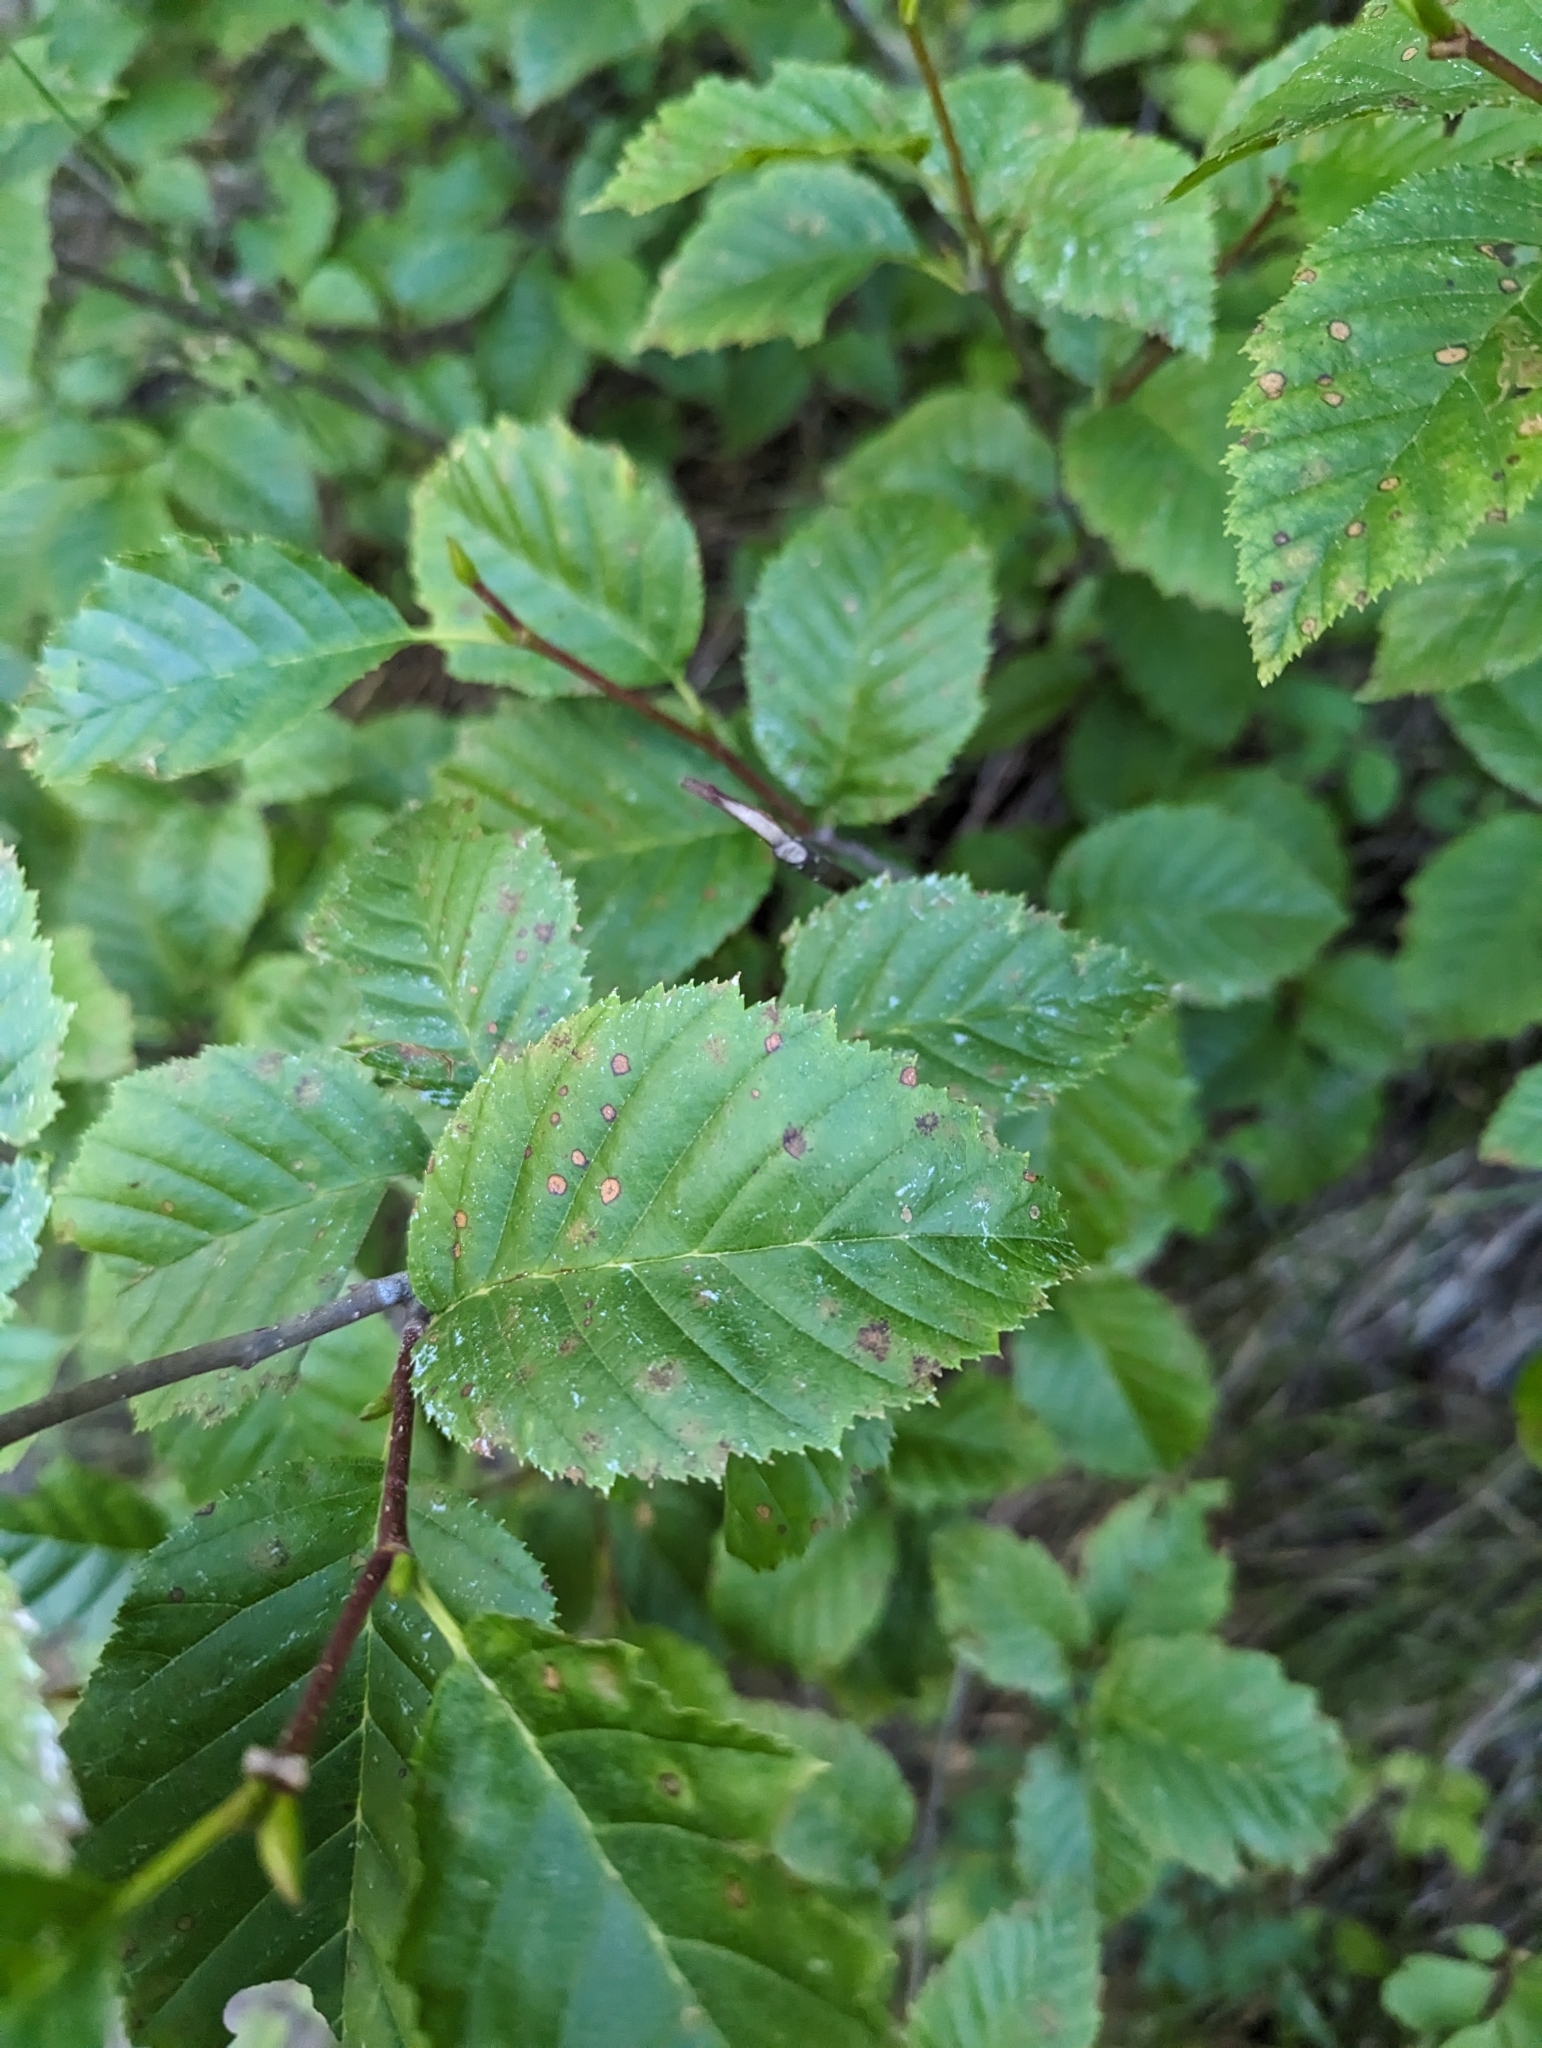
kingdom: Plantae
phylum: Tracheophyta
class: Magnoliopsida
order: Fagales
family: Betulaceae
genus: Alnus
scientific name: Alnus alnobetula
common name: Green alder
